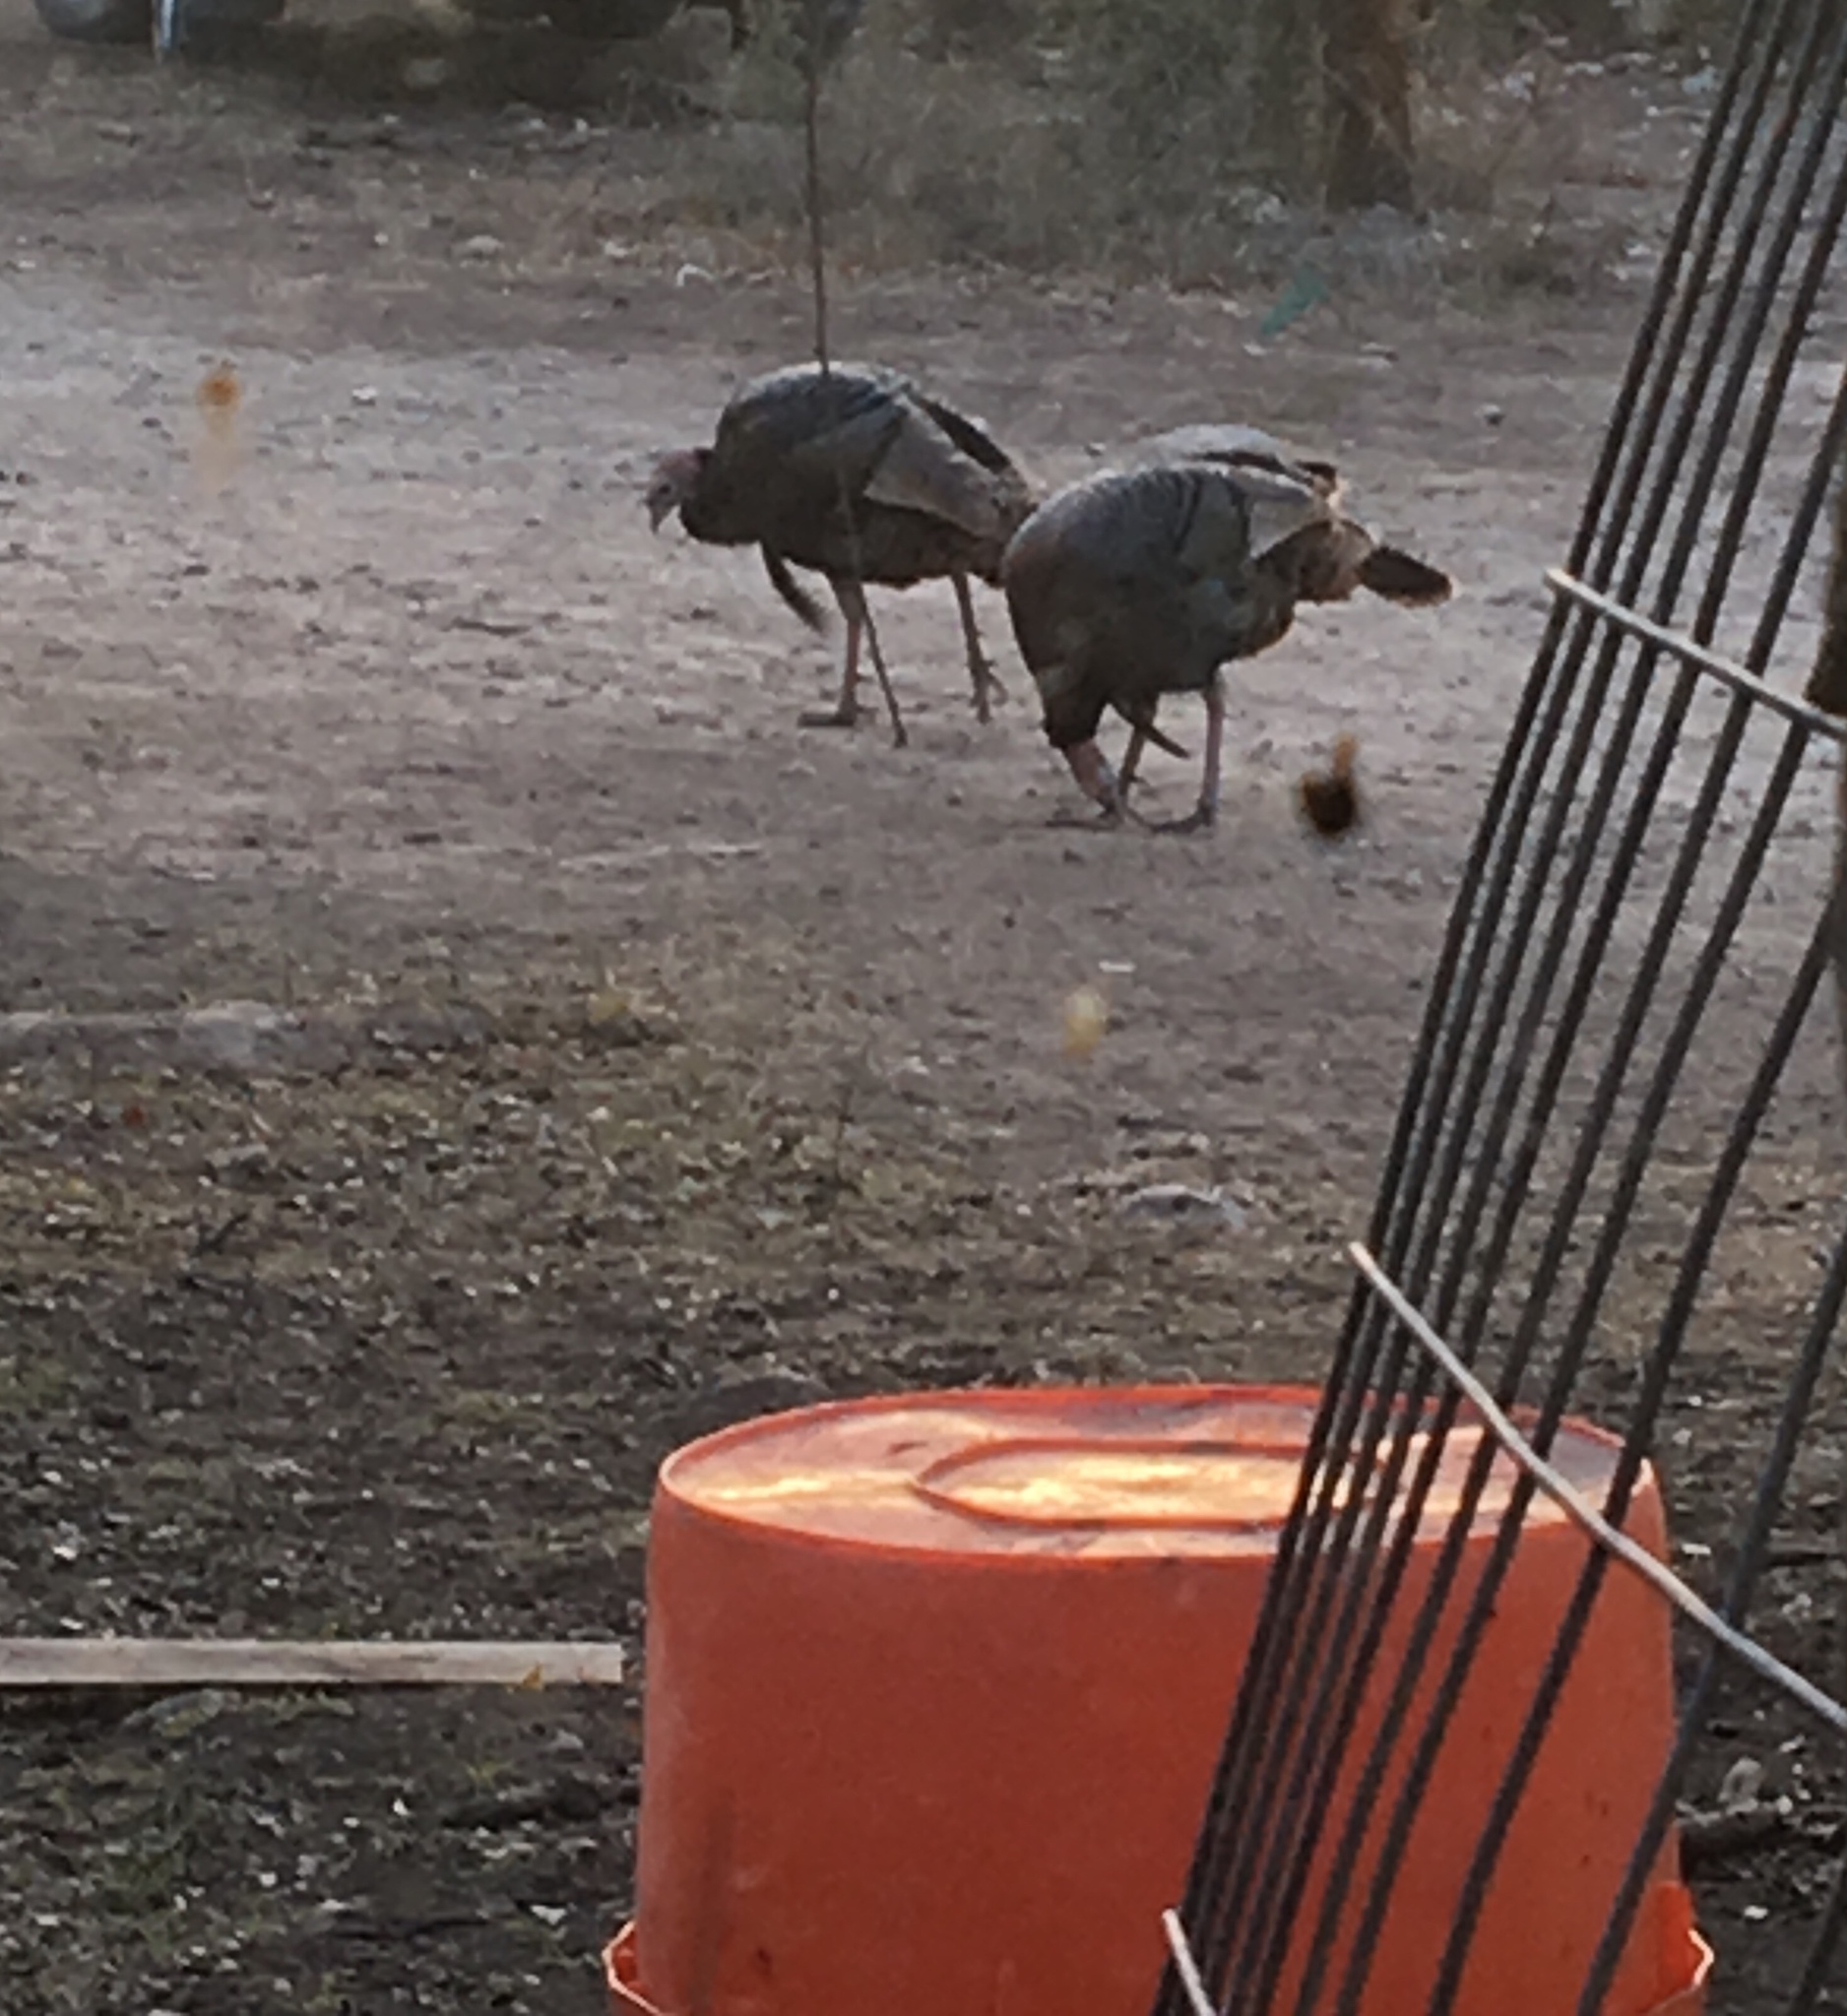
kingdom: Animalia
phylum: Chordata
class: Aves
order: Galliformes
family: Phasianidae
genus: Meleagris
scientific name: Meleagris gallopavo
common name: Wild turkey
